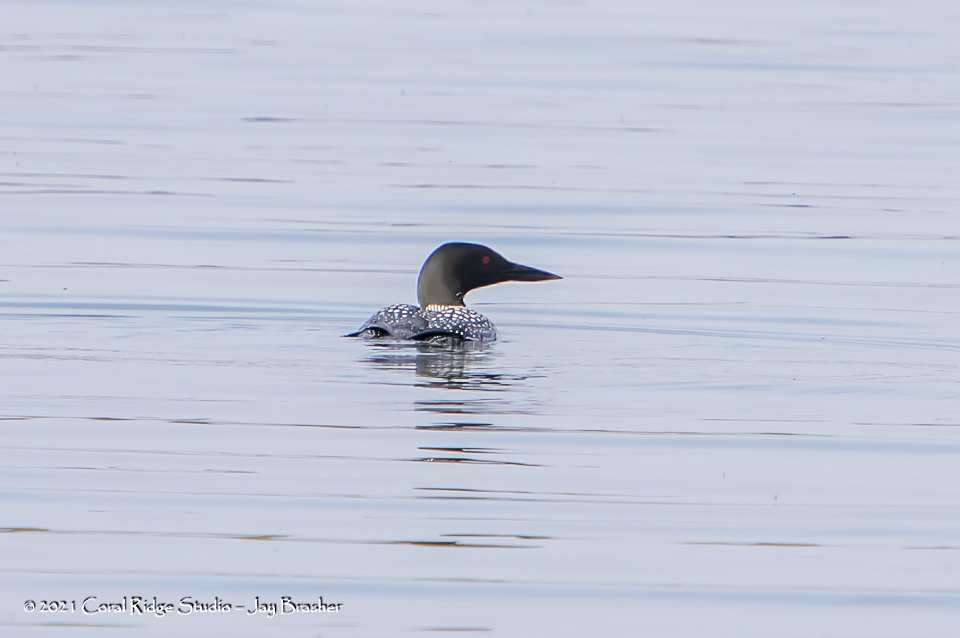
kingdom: Animalia
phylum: Chordata
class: Aves
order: Gaviiformes
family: Gaviidae
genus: Gavia
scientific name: Gavia immer
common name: Common loon
